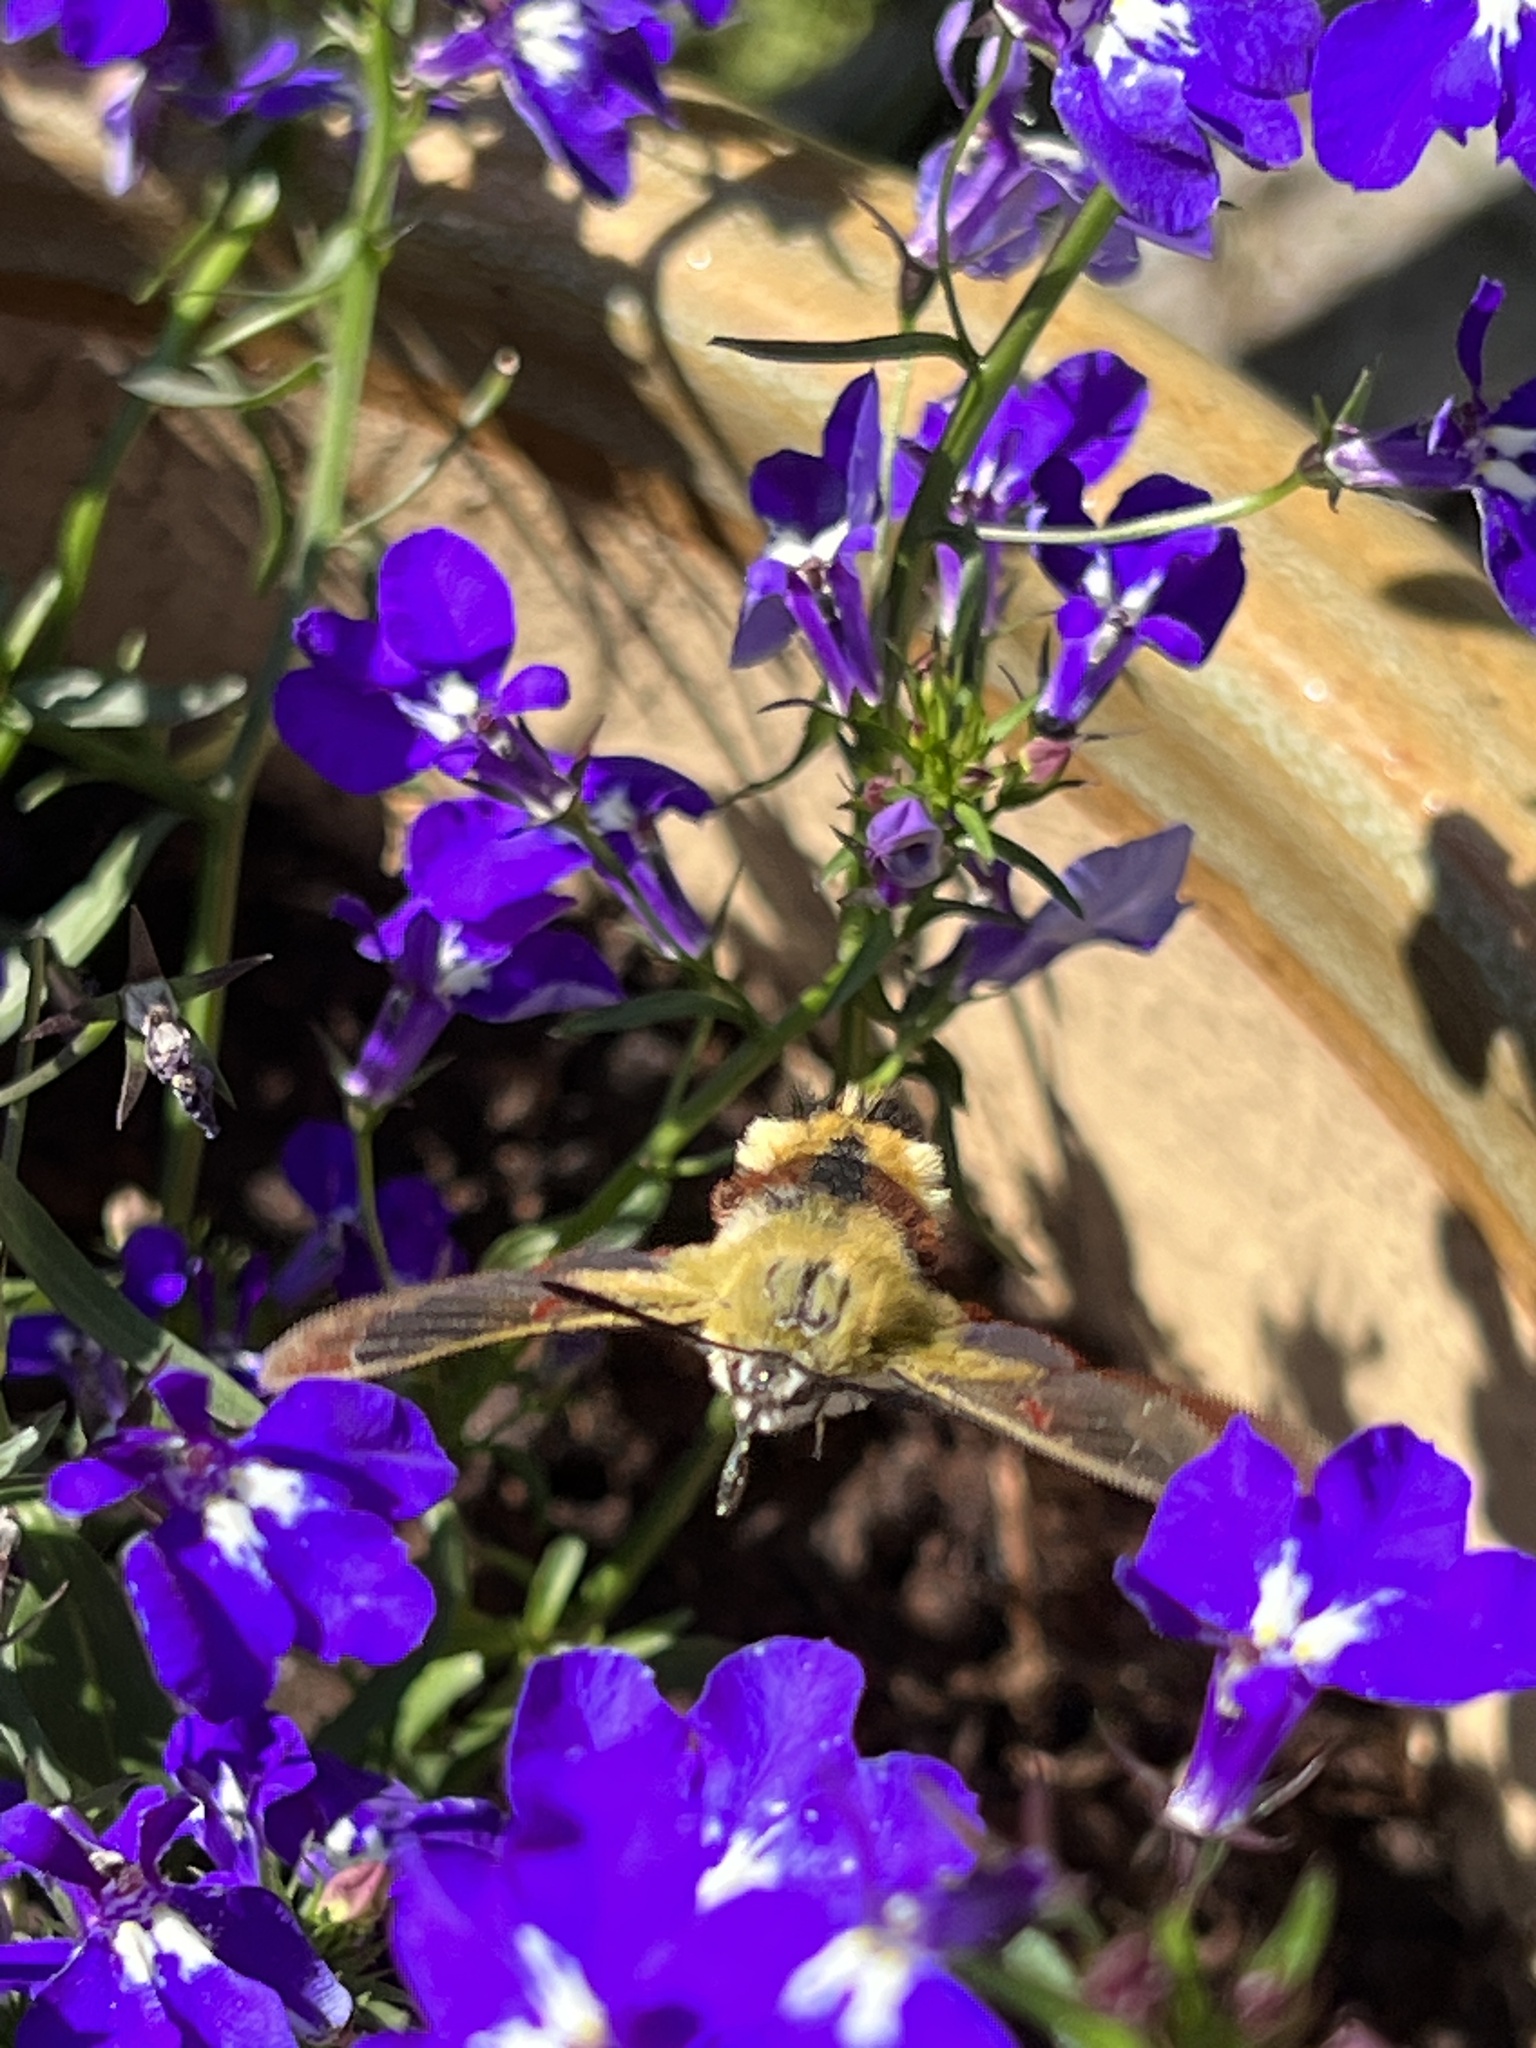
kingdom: Animalia
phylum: Arthropoda
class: Insecta
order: Lepidoptera
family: Sphingidae
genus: Hemaris
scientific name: Hemaris fuciformis
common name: Broad-bordered bee hawk-moth
